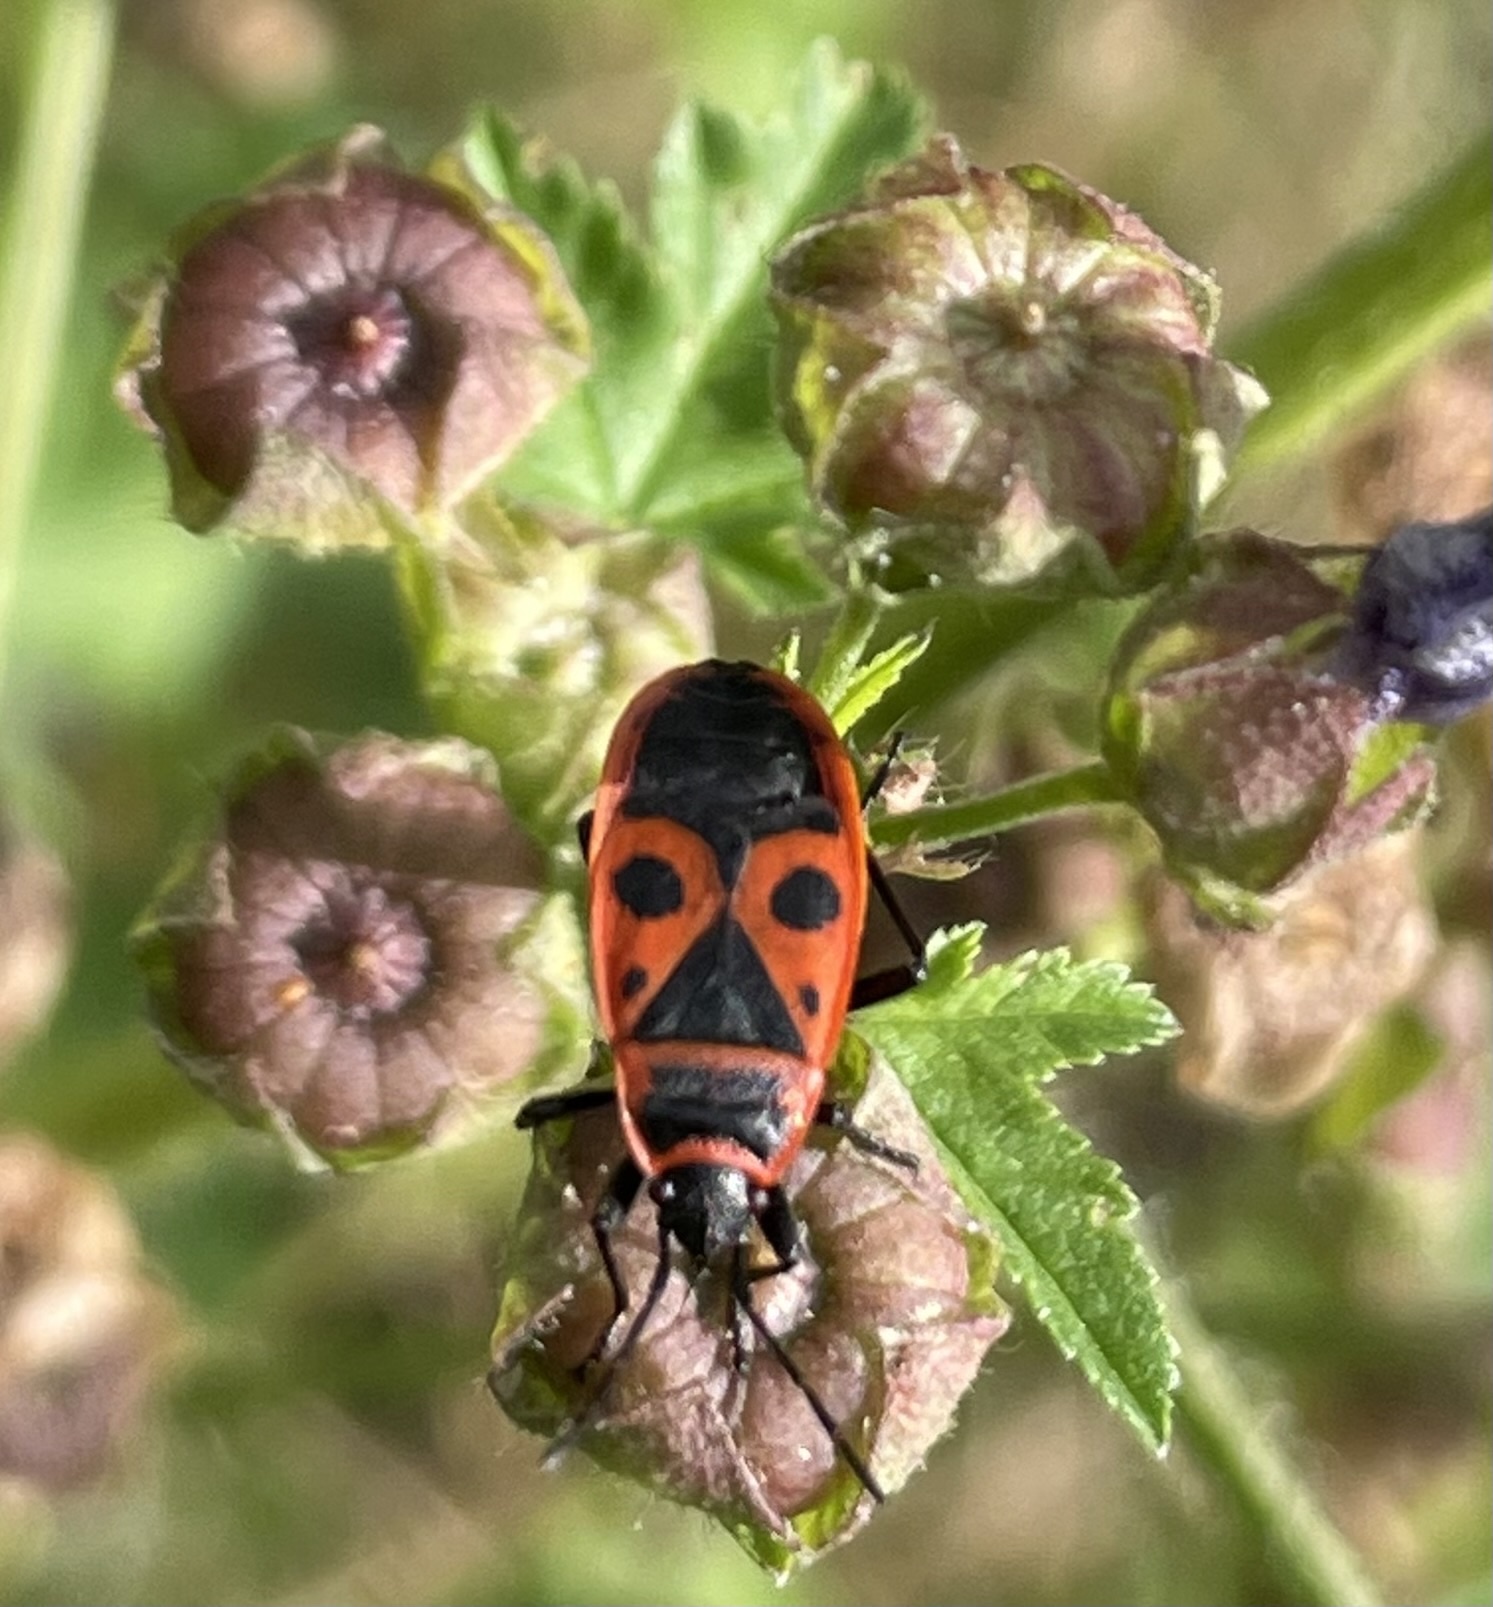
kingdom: Animalia
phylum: Arthropoda
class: Insecta
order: Hemiptera
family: Pyrrhocoridae
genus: Pyrrhocoris
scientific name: Pyrrhocoris apterus
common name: Firebug
